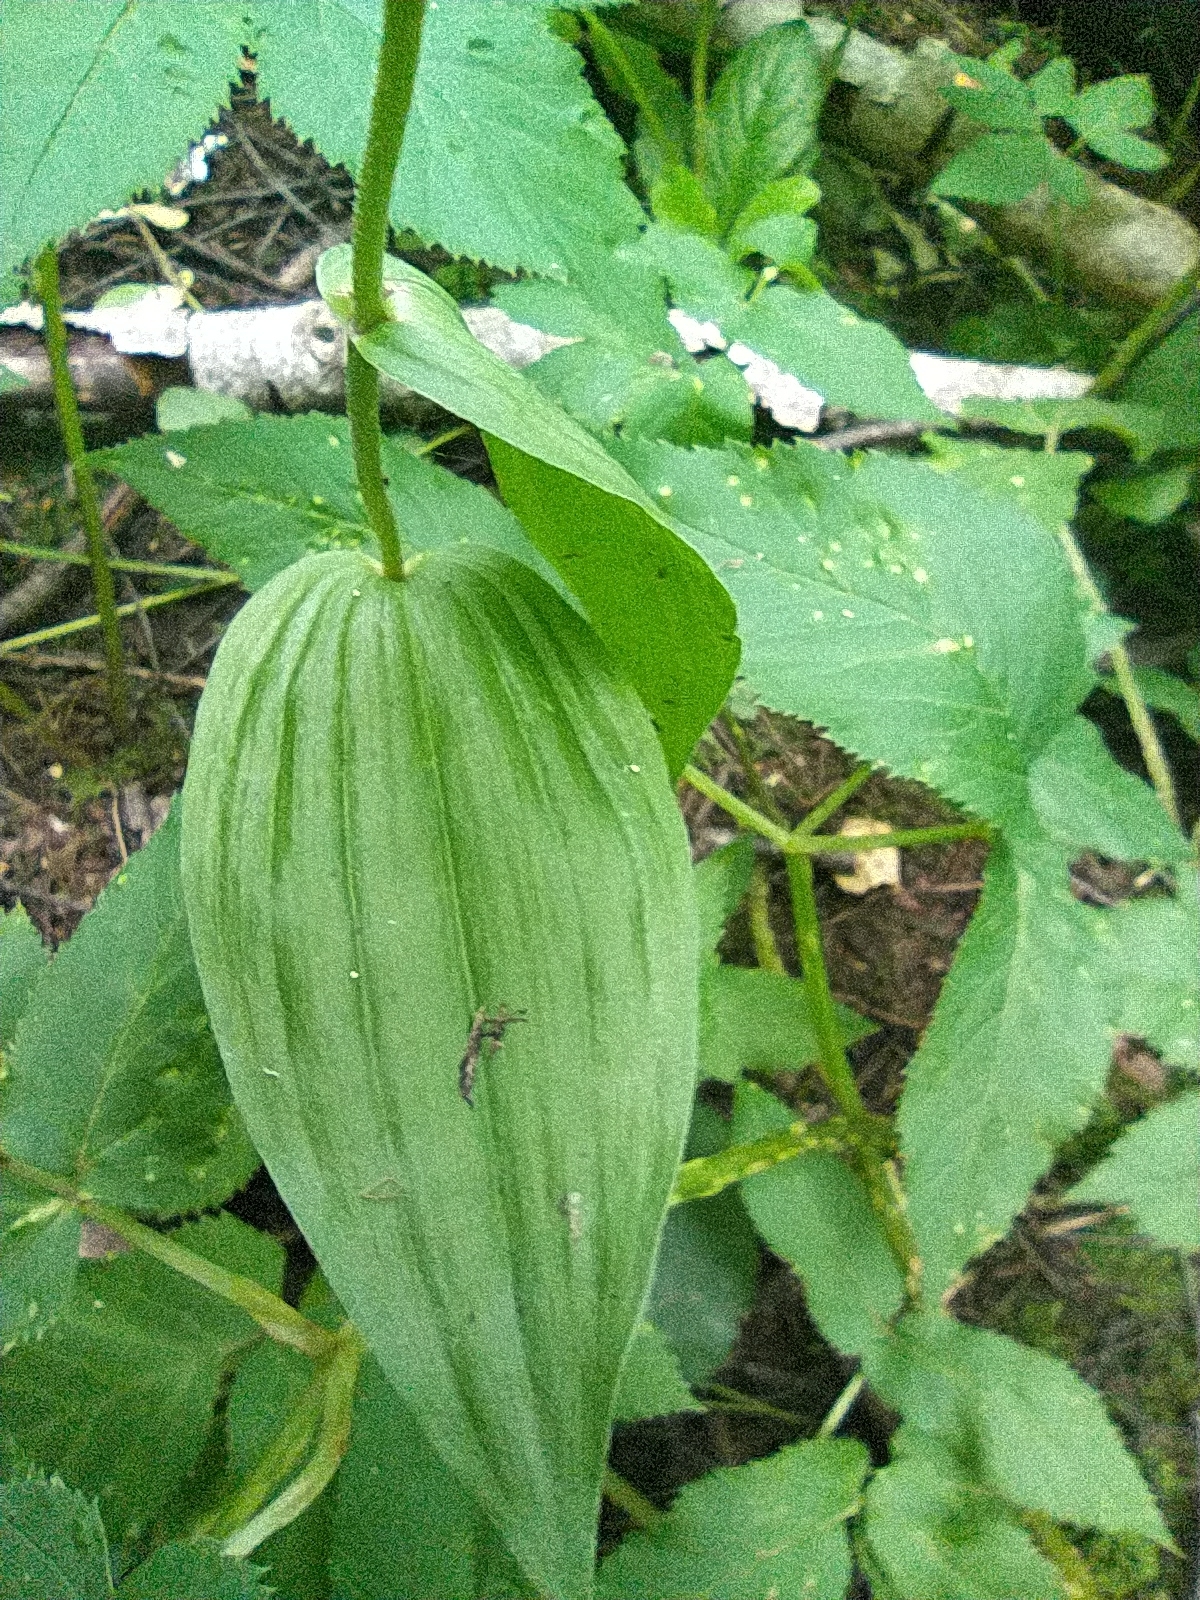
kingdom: Plantae
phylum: Tracheophyta
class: Liliopsida
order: Asparagales
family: Orchidaceae
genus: Epipactis
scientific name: Epipactis helleborine
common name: Broad-leaved helleborine
